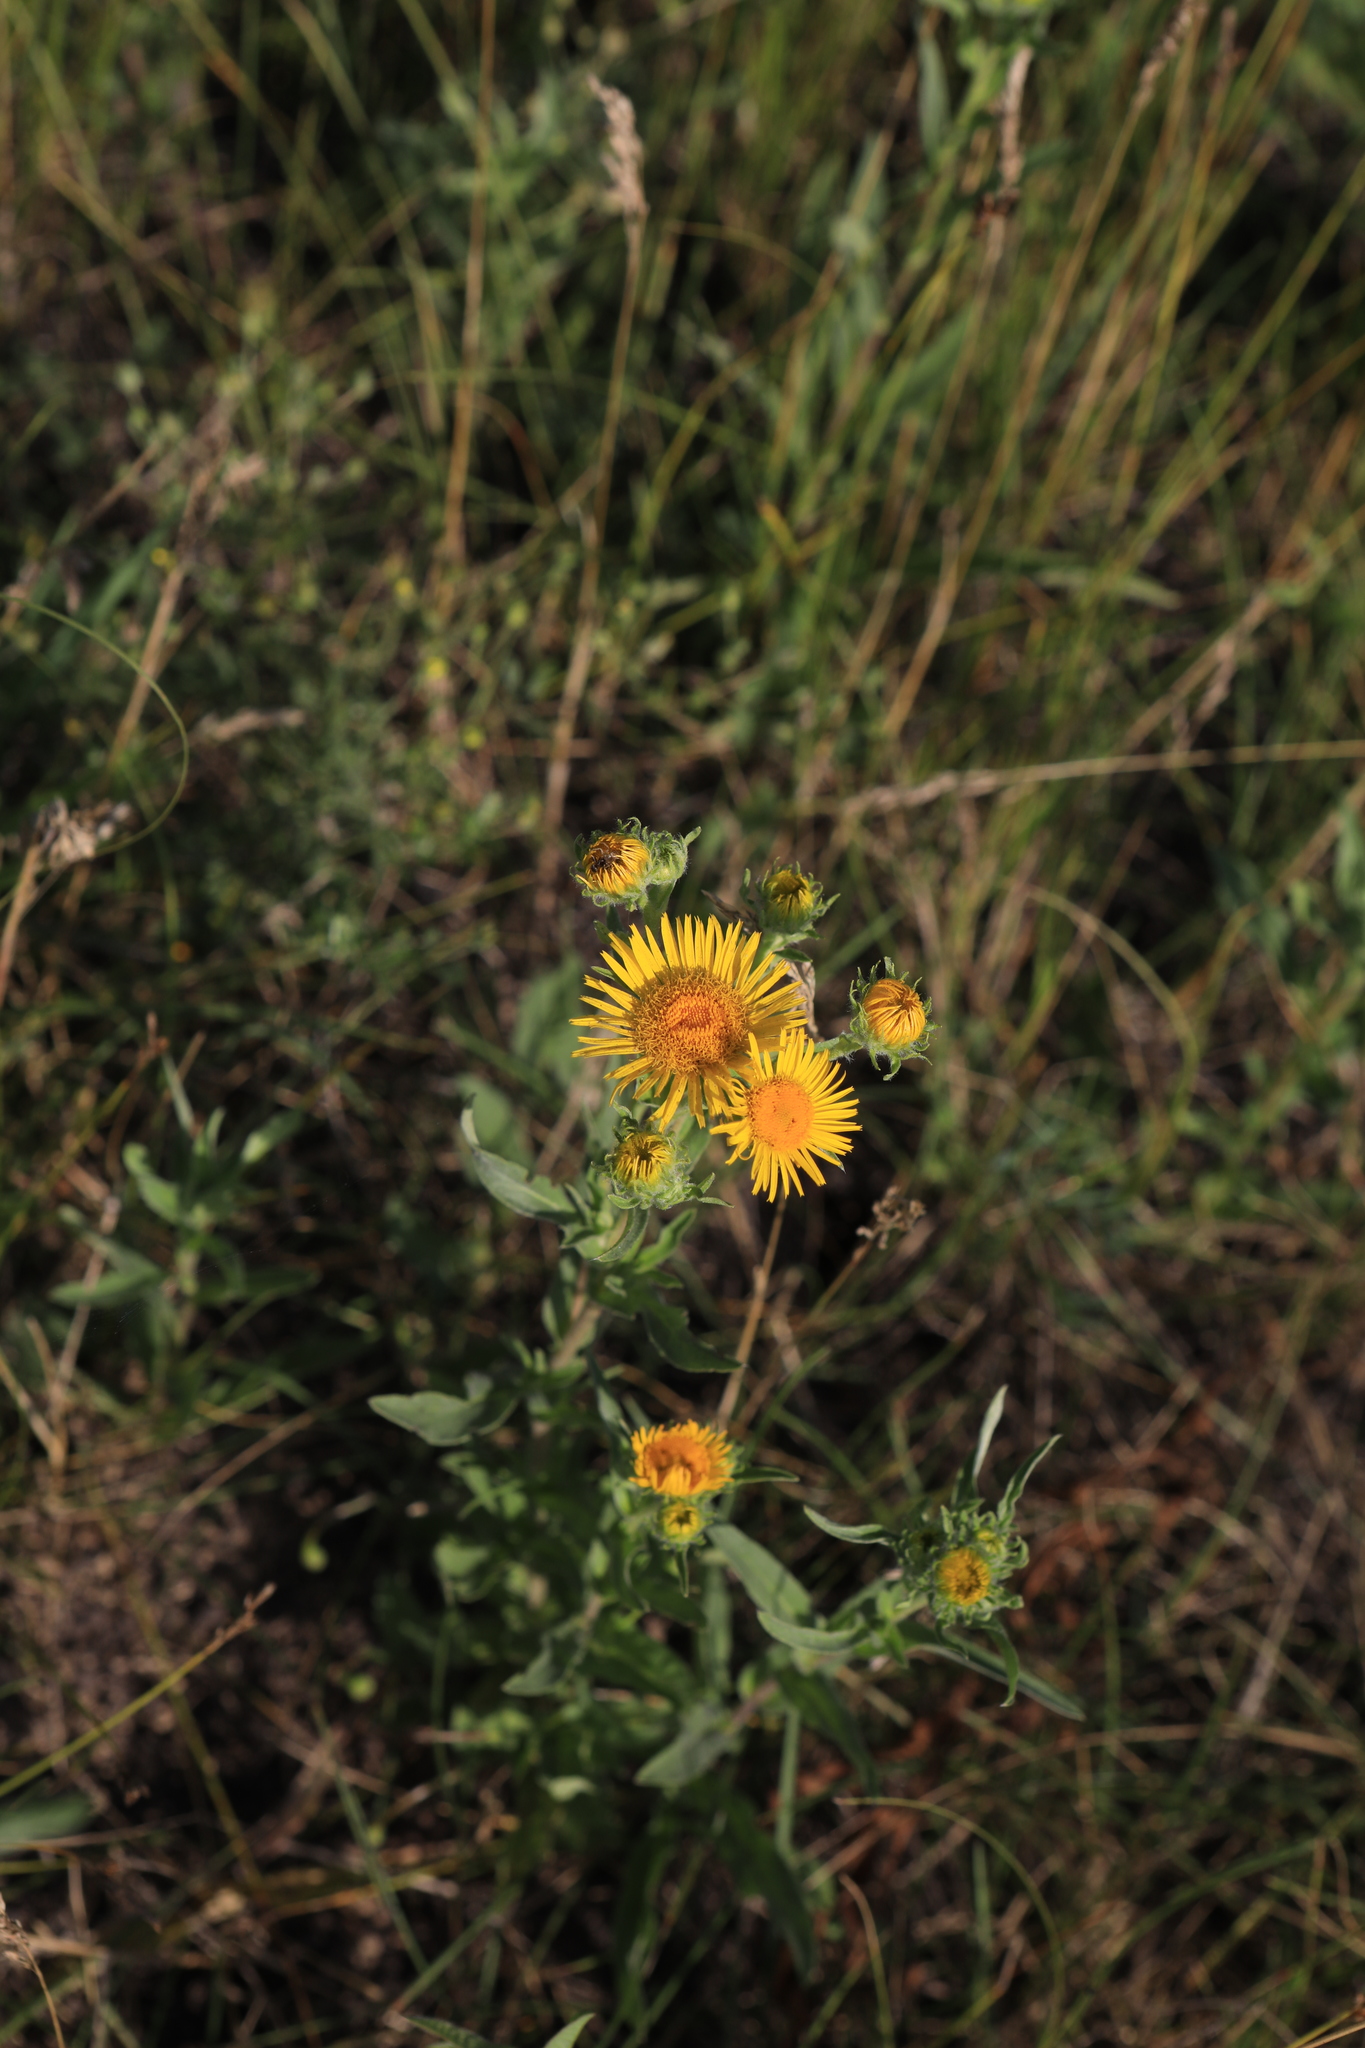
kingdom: Plantae
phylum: Tracheophyta
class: Magnoliopsida
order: Asterales
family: Asteraceae
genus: Pentanema
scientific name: Pentanema britannicum
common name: British elecampane
